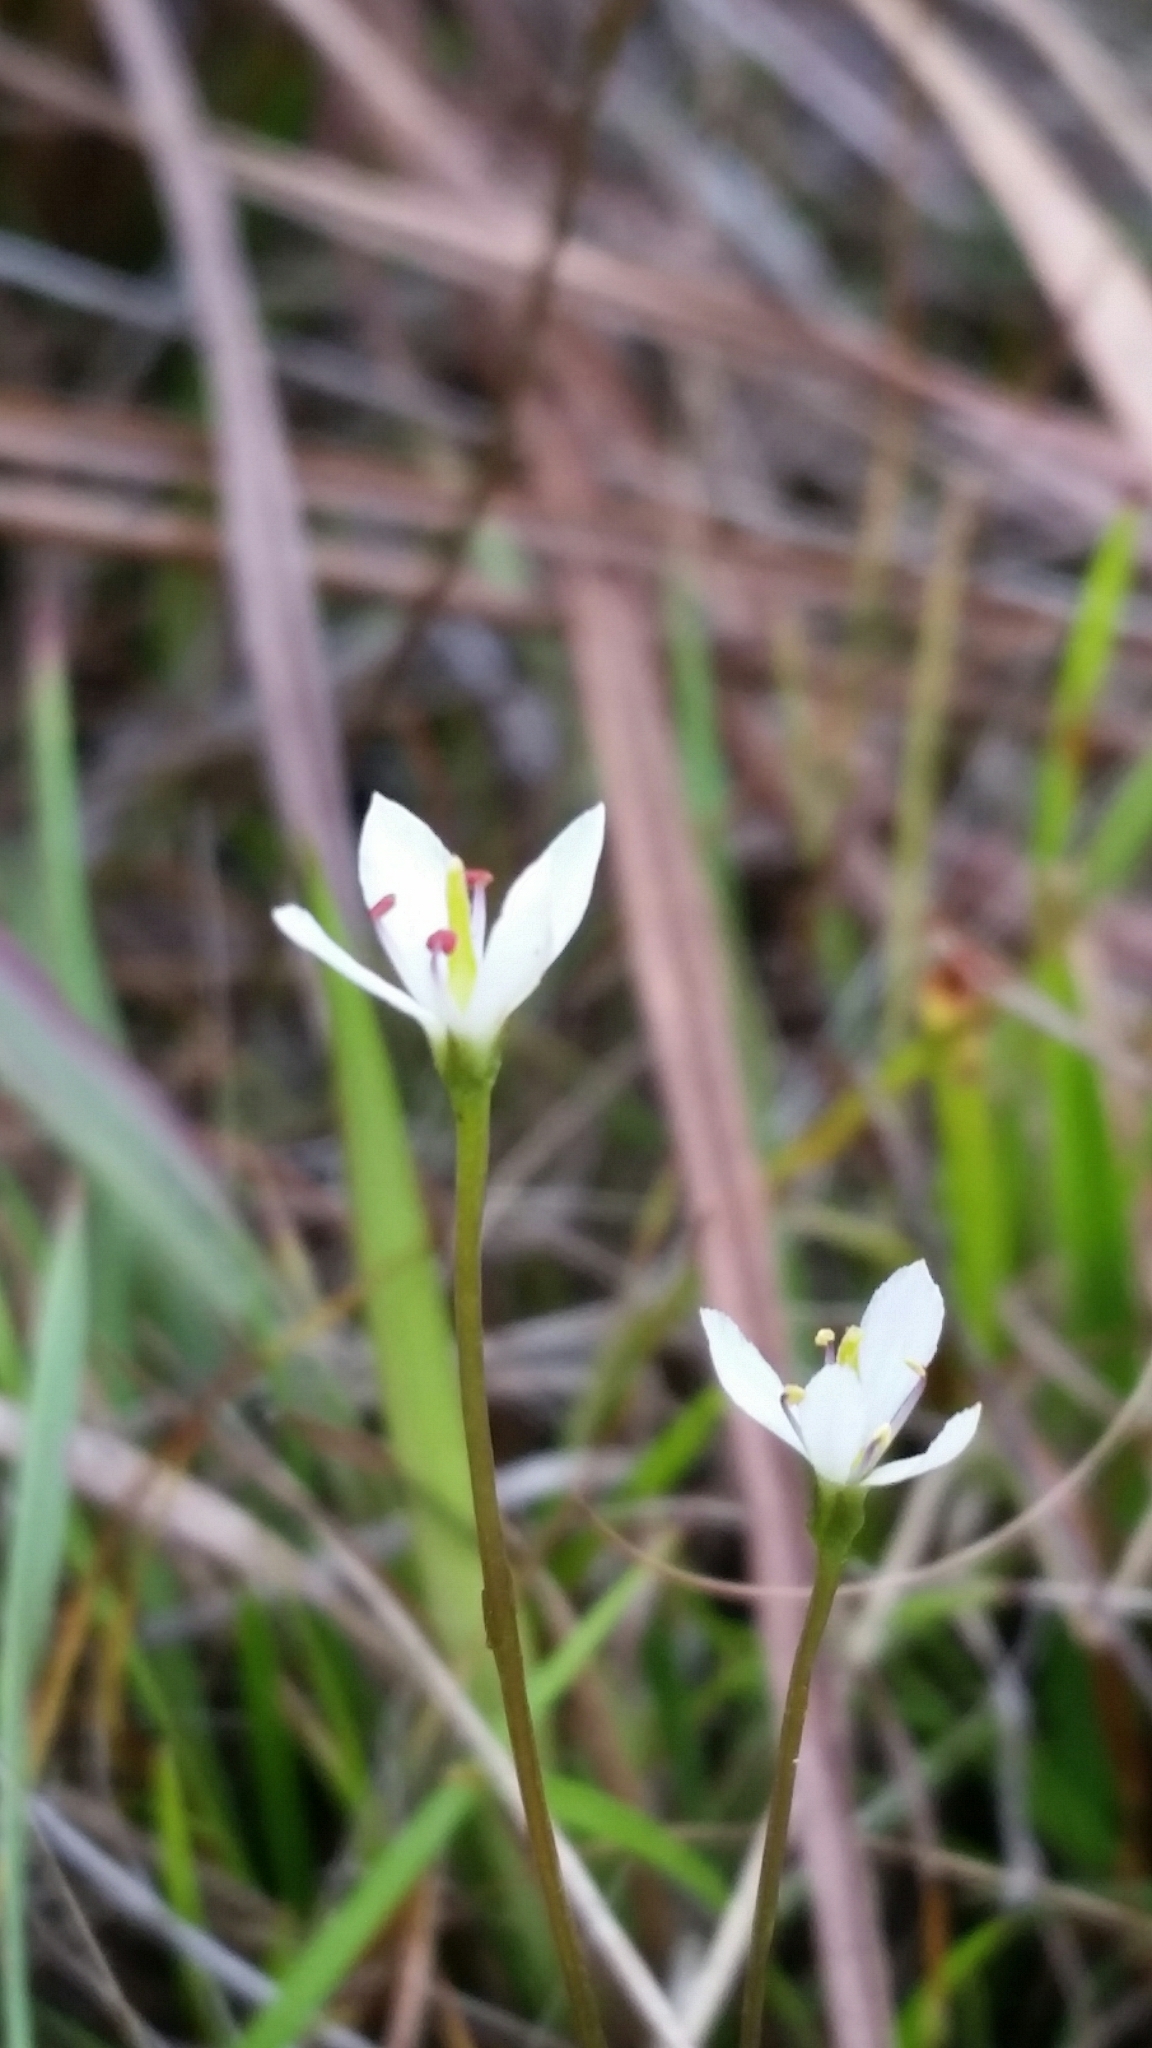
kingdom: Plantae
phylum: Tracheophyta
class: Magnoliopsida
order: Gentianales
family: Gentianaceae
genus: Bartonia
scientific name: Bartonia verna
